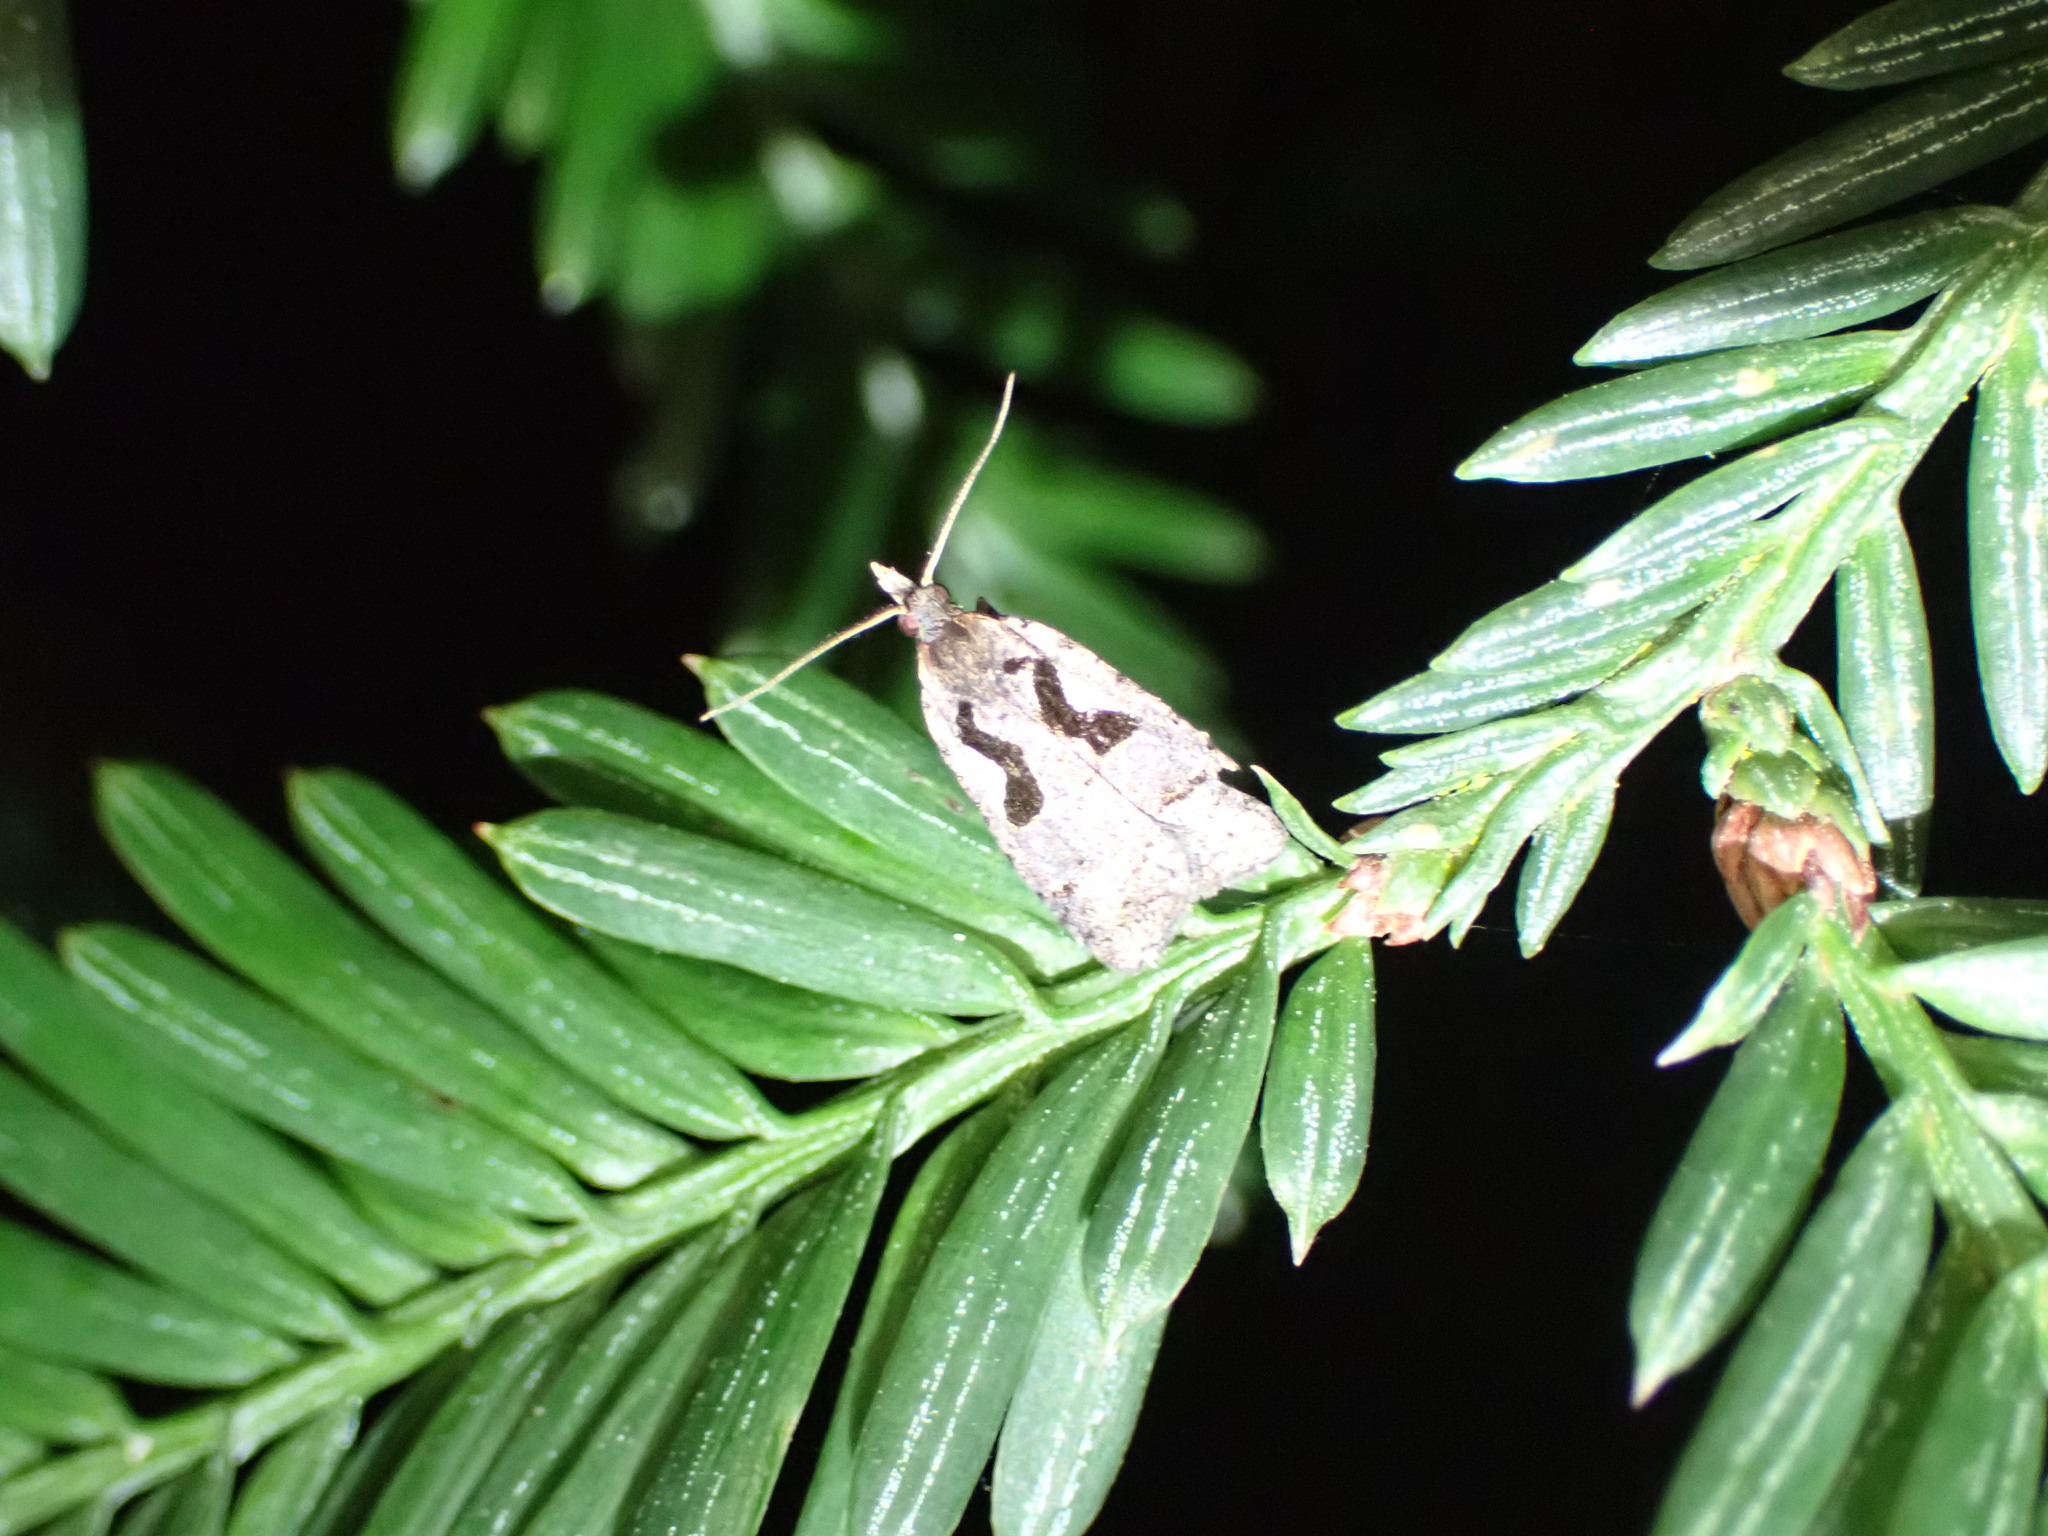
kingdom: Animalia
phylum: Arthropoda
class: Insecta
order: Lepidoptera
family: Tortricidae
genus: Cnephasia
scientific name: Cnephasia jactatana
